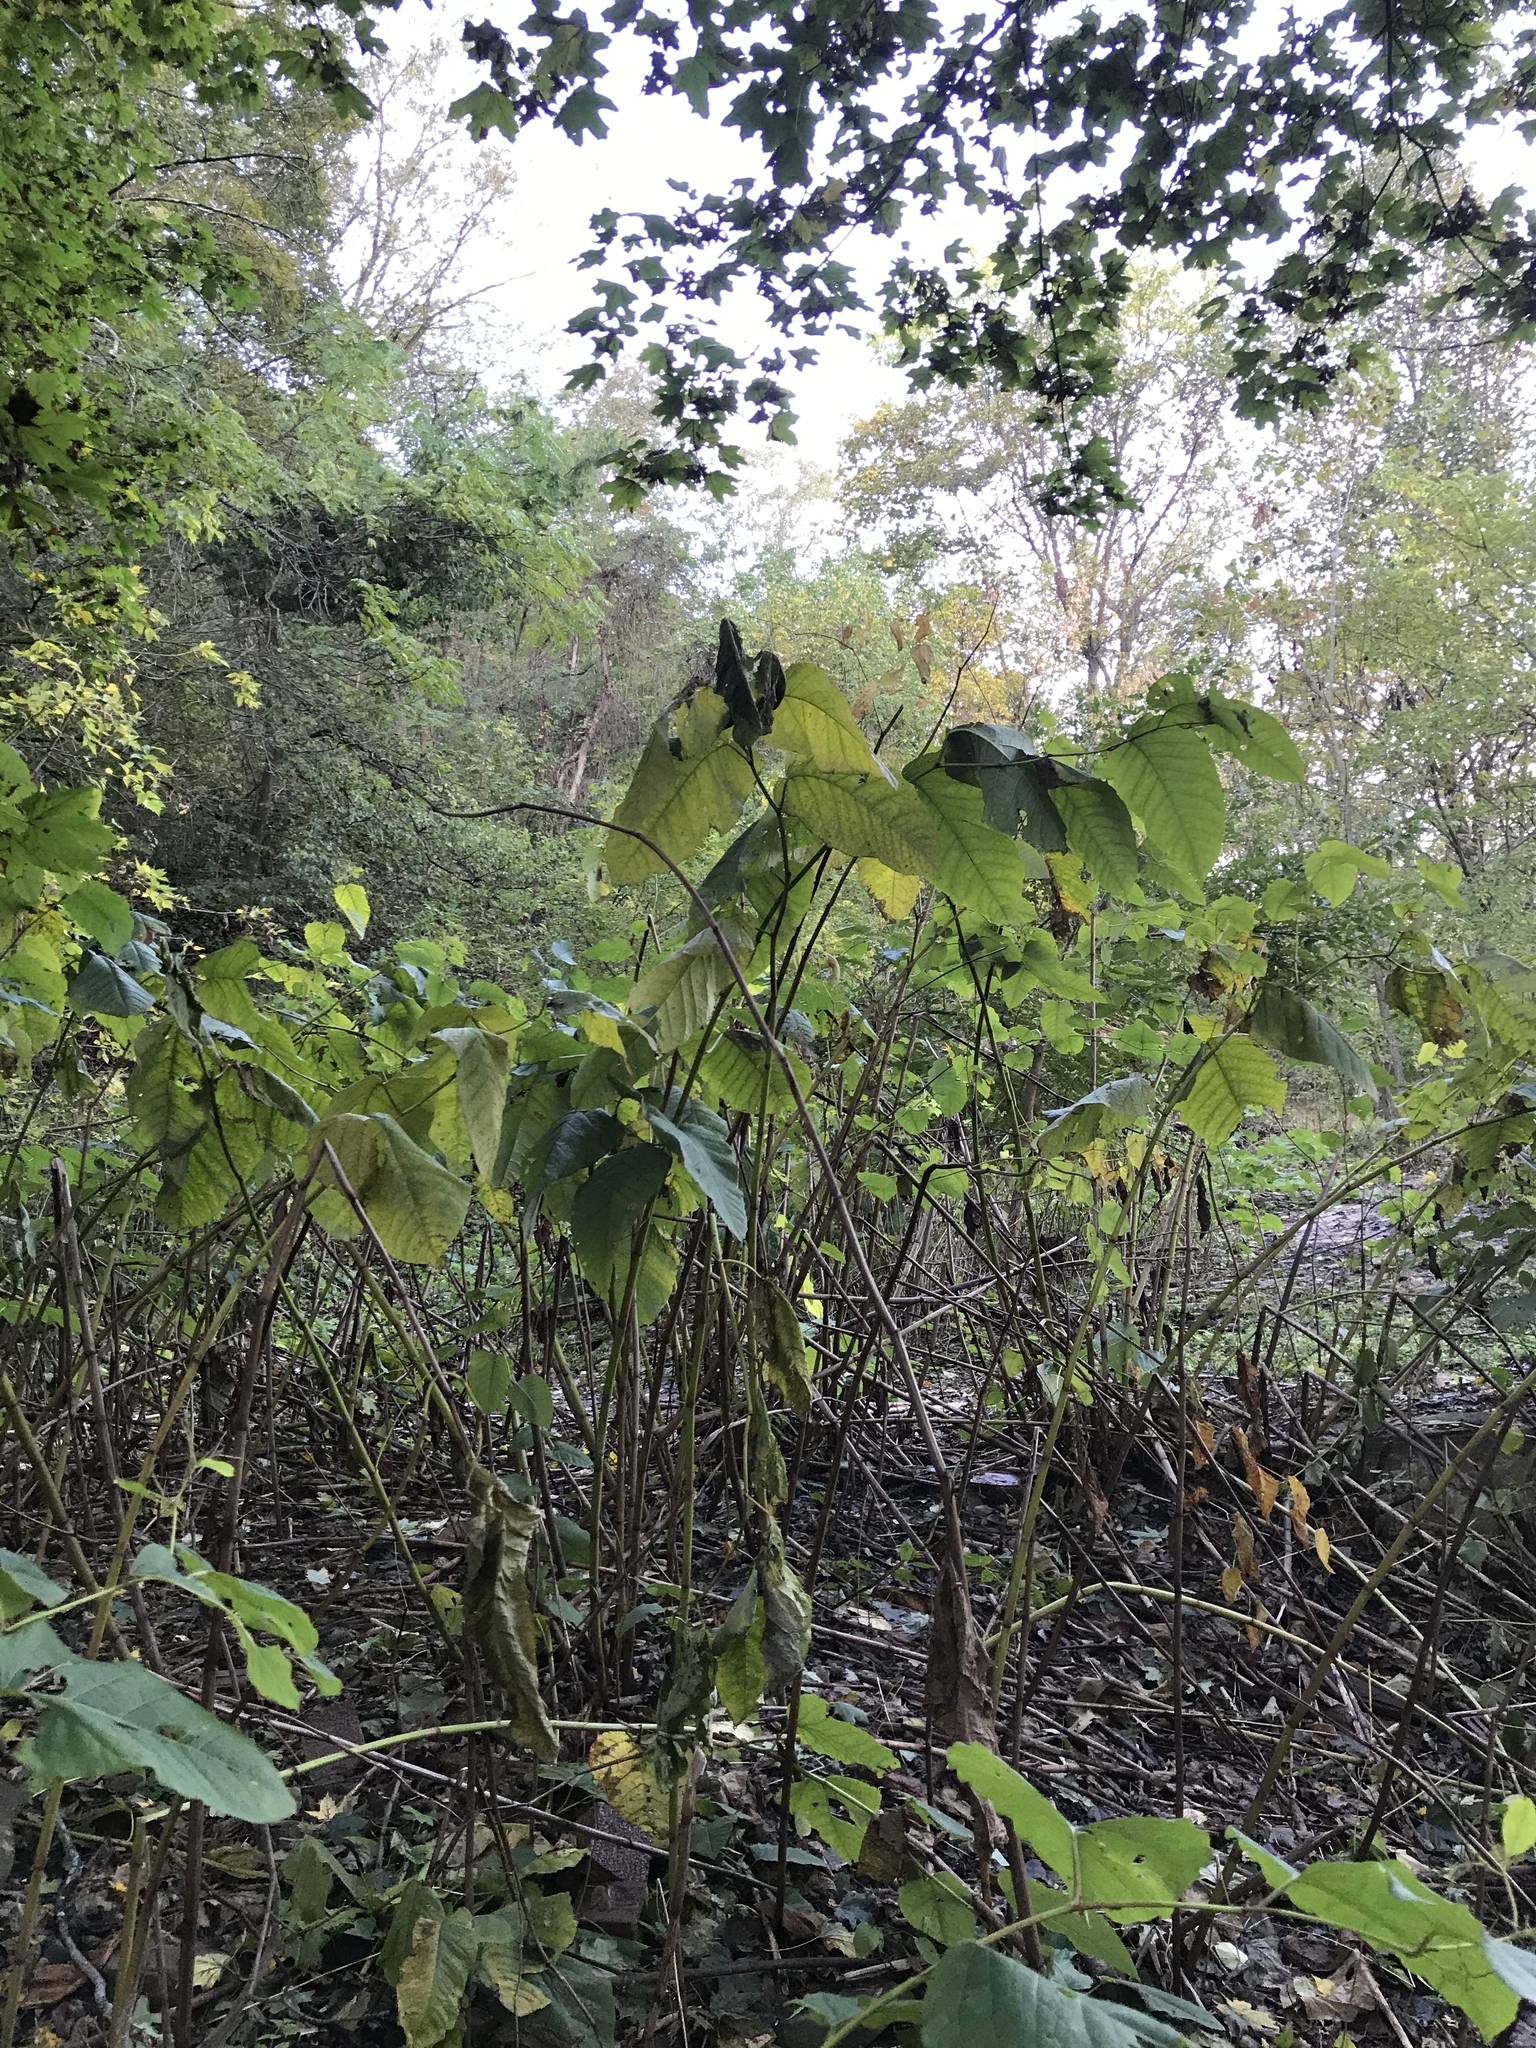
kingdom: Plantae
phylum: Tracheophyta
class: Magnoliopsida
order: Caryophyllales
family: Polygonaceae
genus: Reynoutria
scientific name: Reynoutria sachalinensis
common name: Giant knotweed
